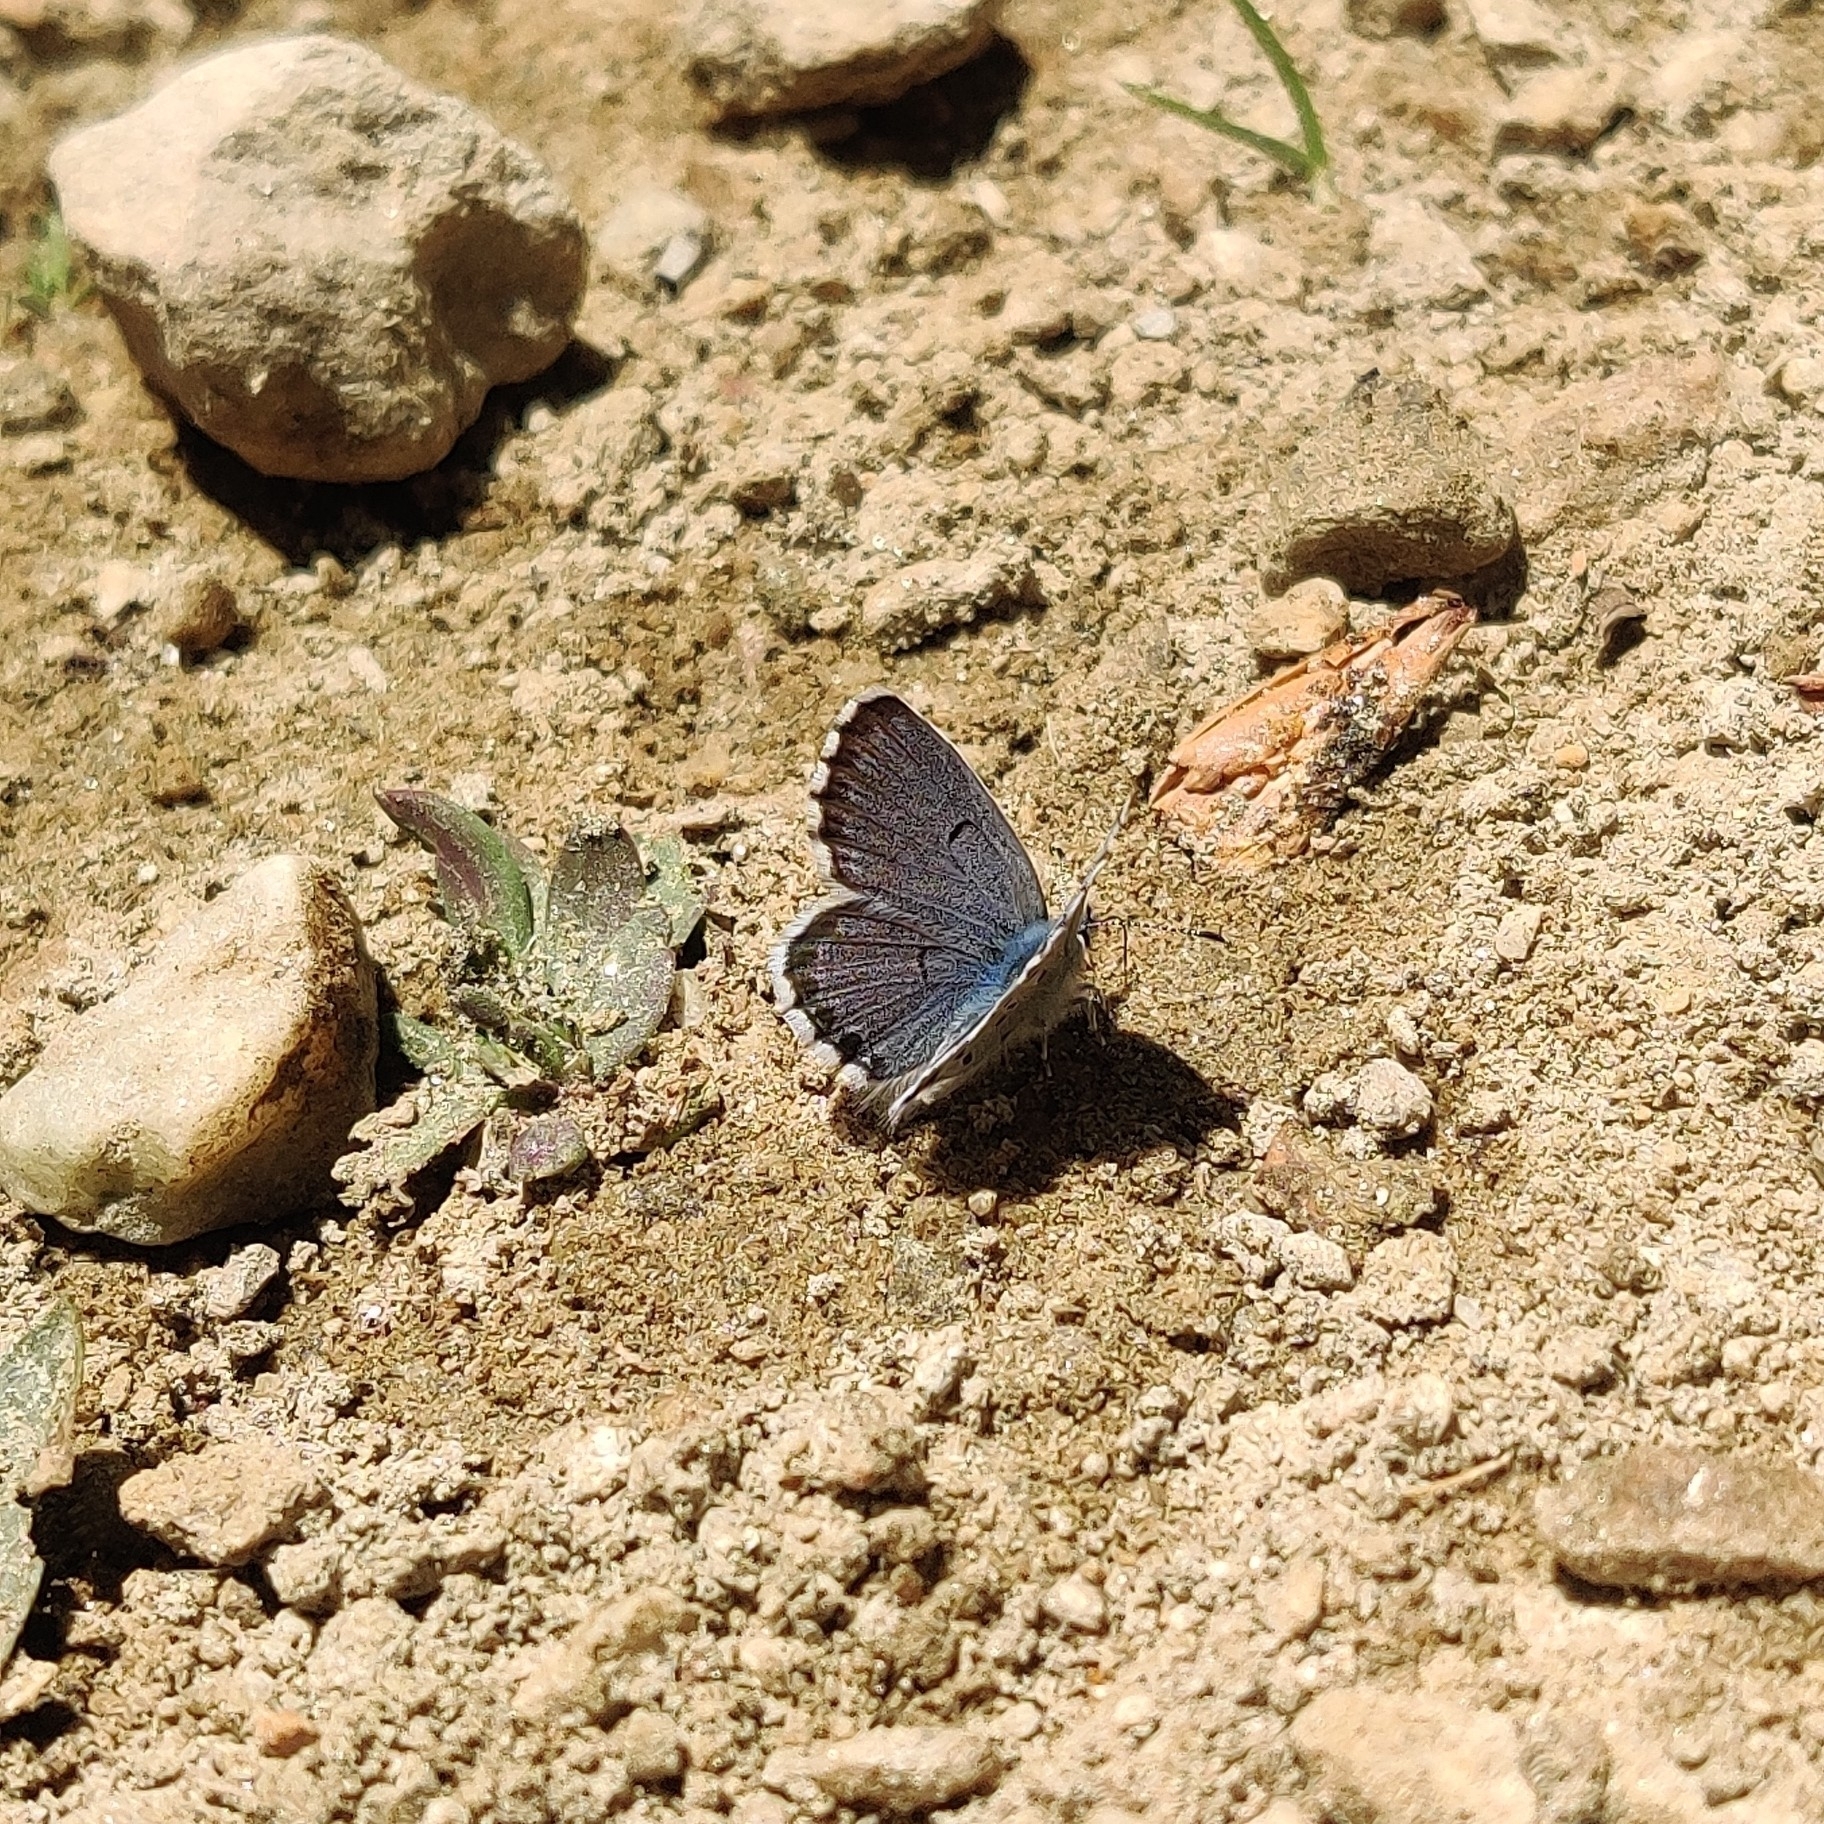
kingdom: Animalia
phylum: Arthropoda
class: Insecta
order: Lepidoptera
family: Lycaenidae
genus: Pseudophilotes
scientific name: Pseudophilotes baton
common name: Baton blue
